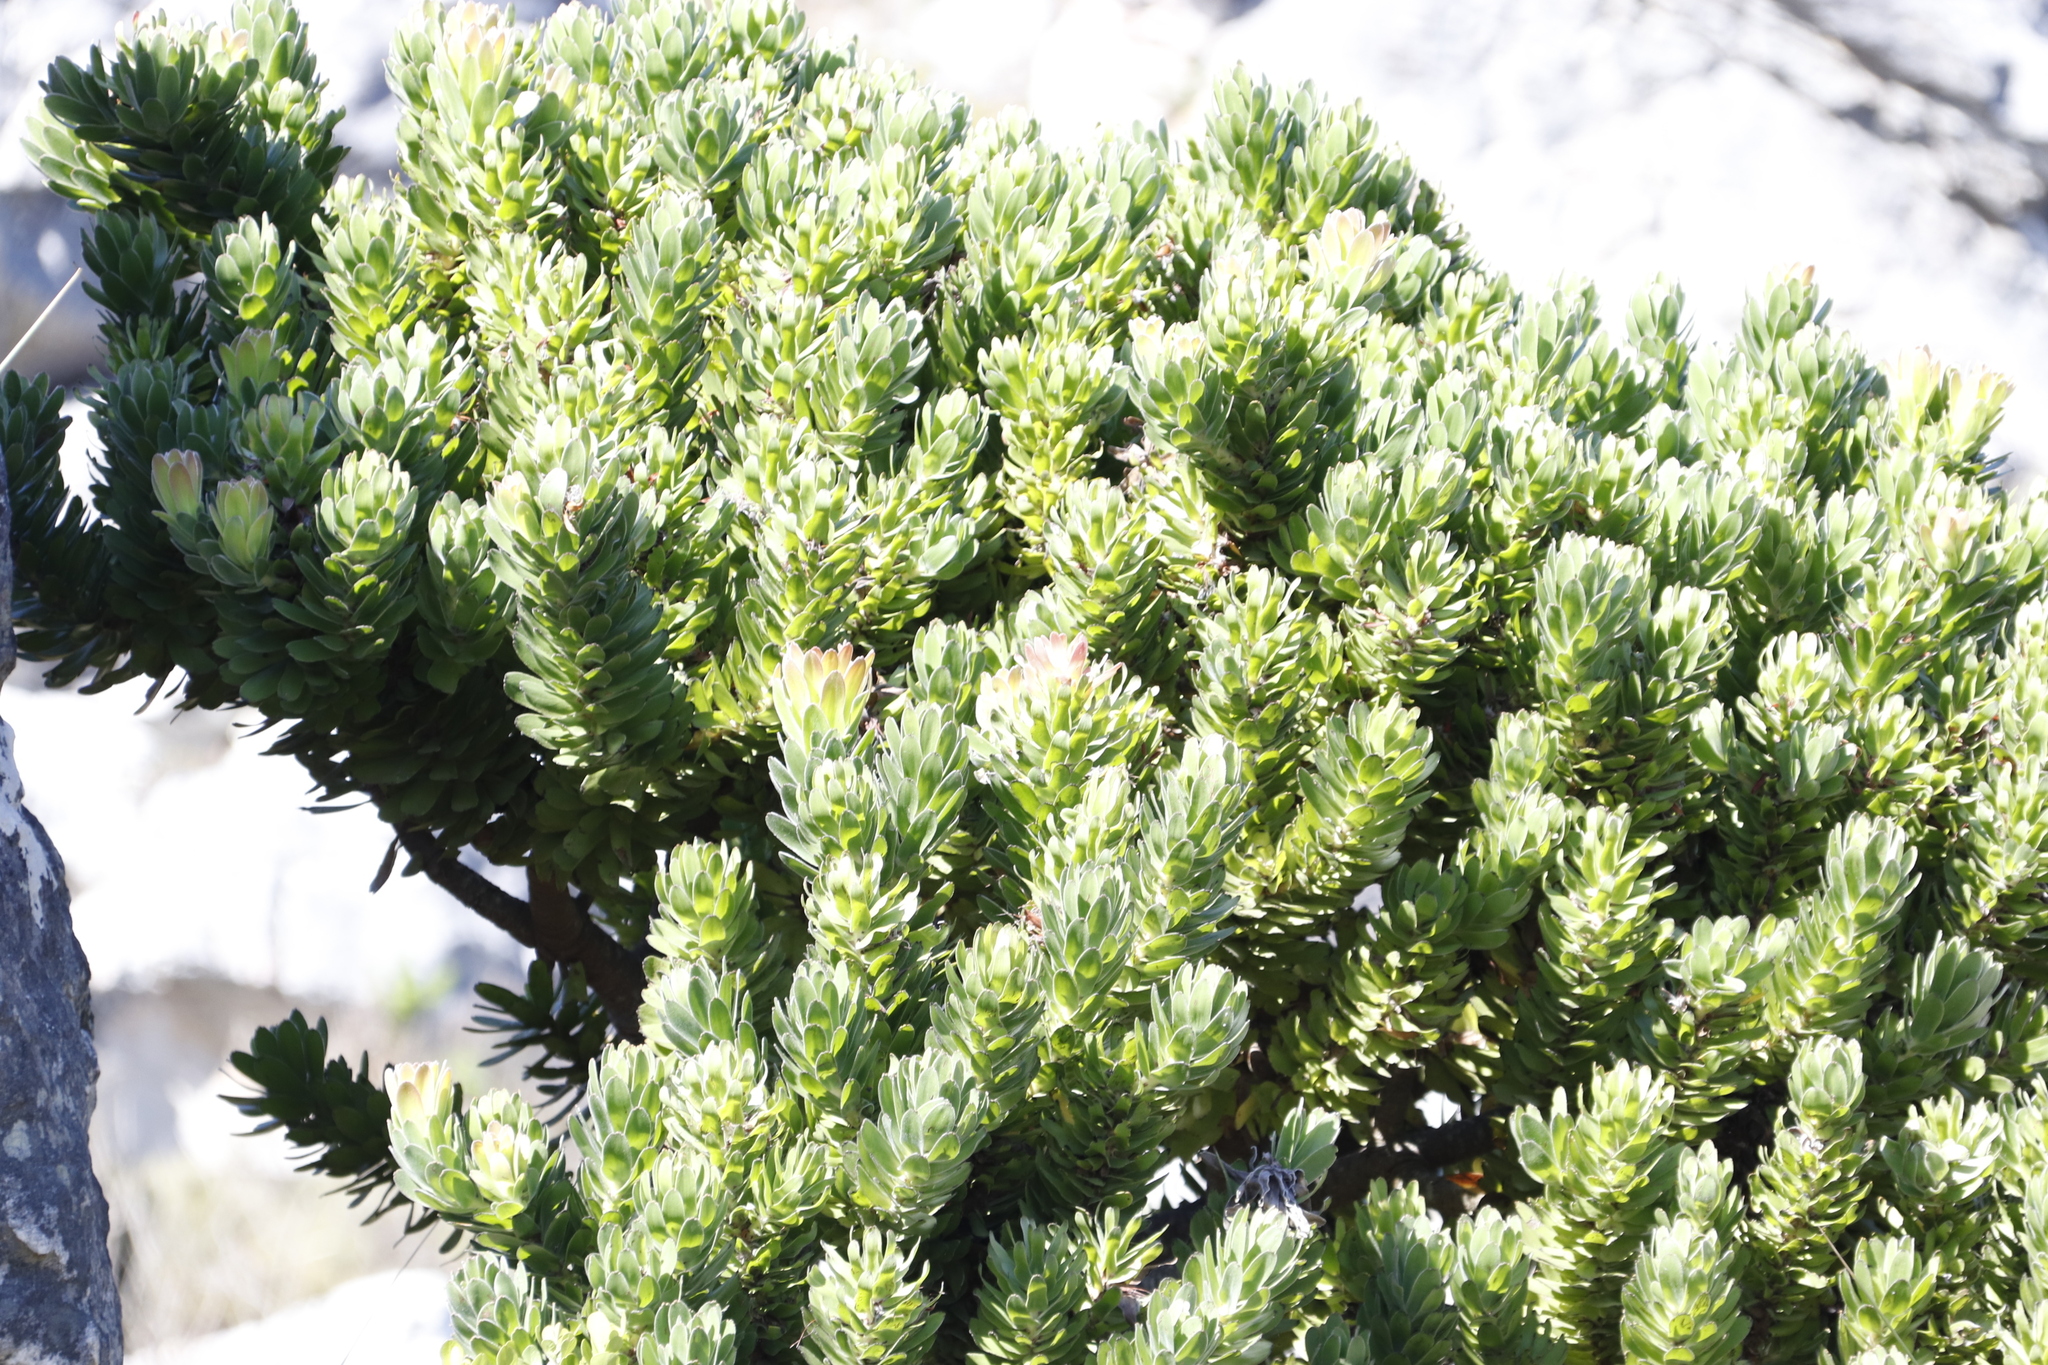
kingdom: Plantae
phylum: Tracheophyta
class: Magnoliopsida
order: Proteales
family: Proteaceae
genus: Mimetes
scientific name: Mimetes fimbriifolius
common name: Fringed bottlebrush
